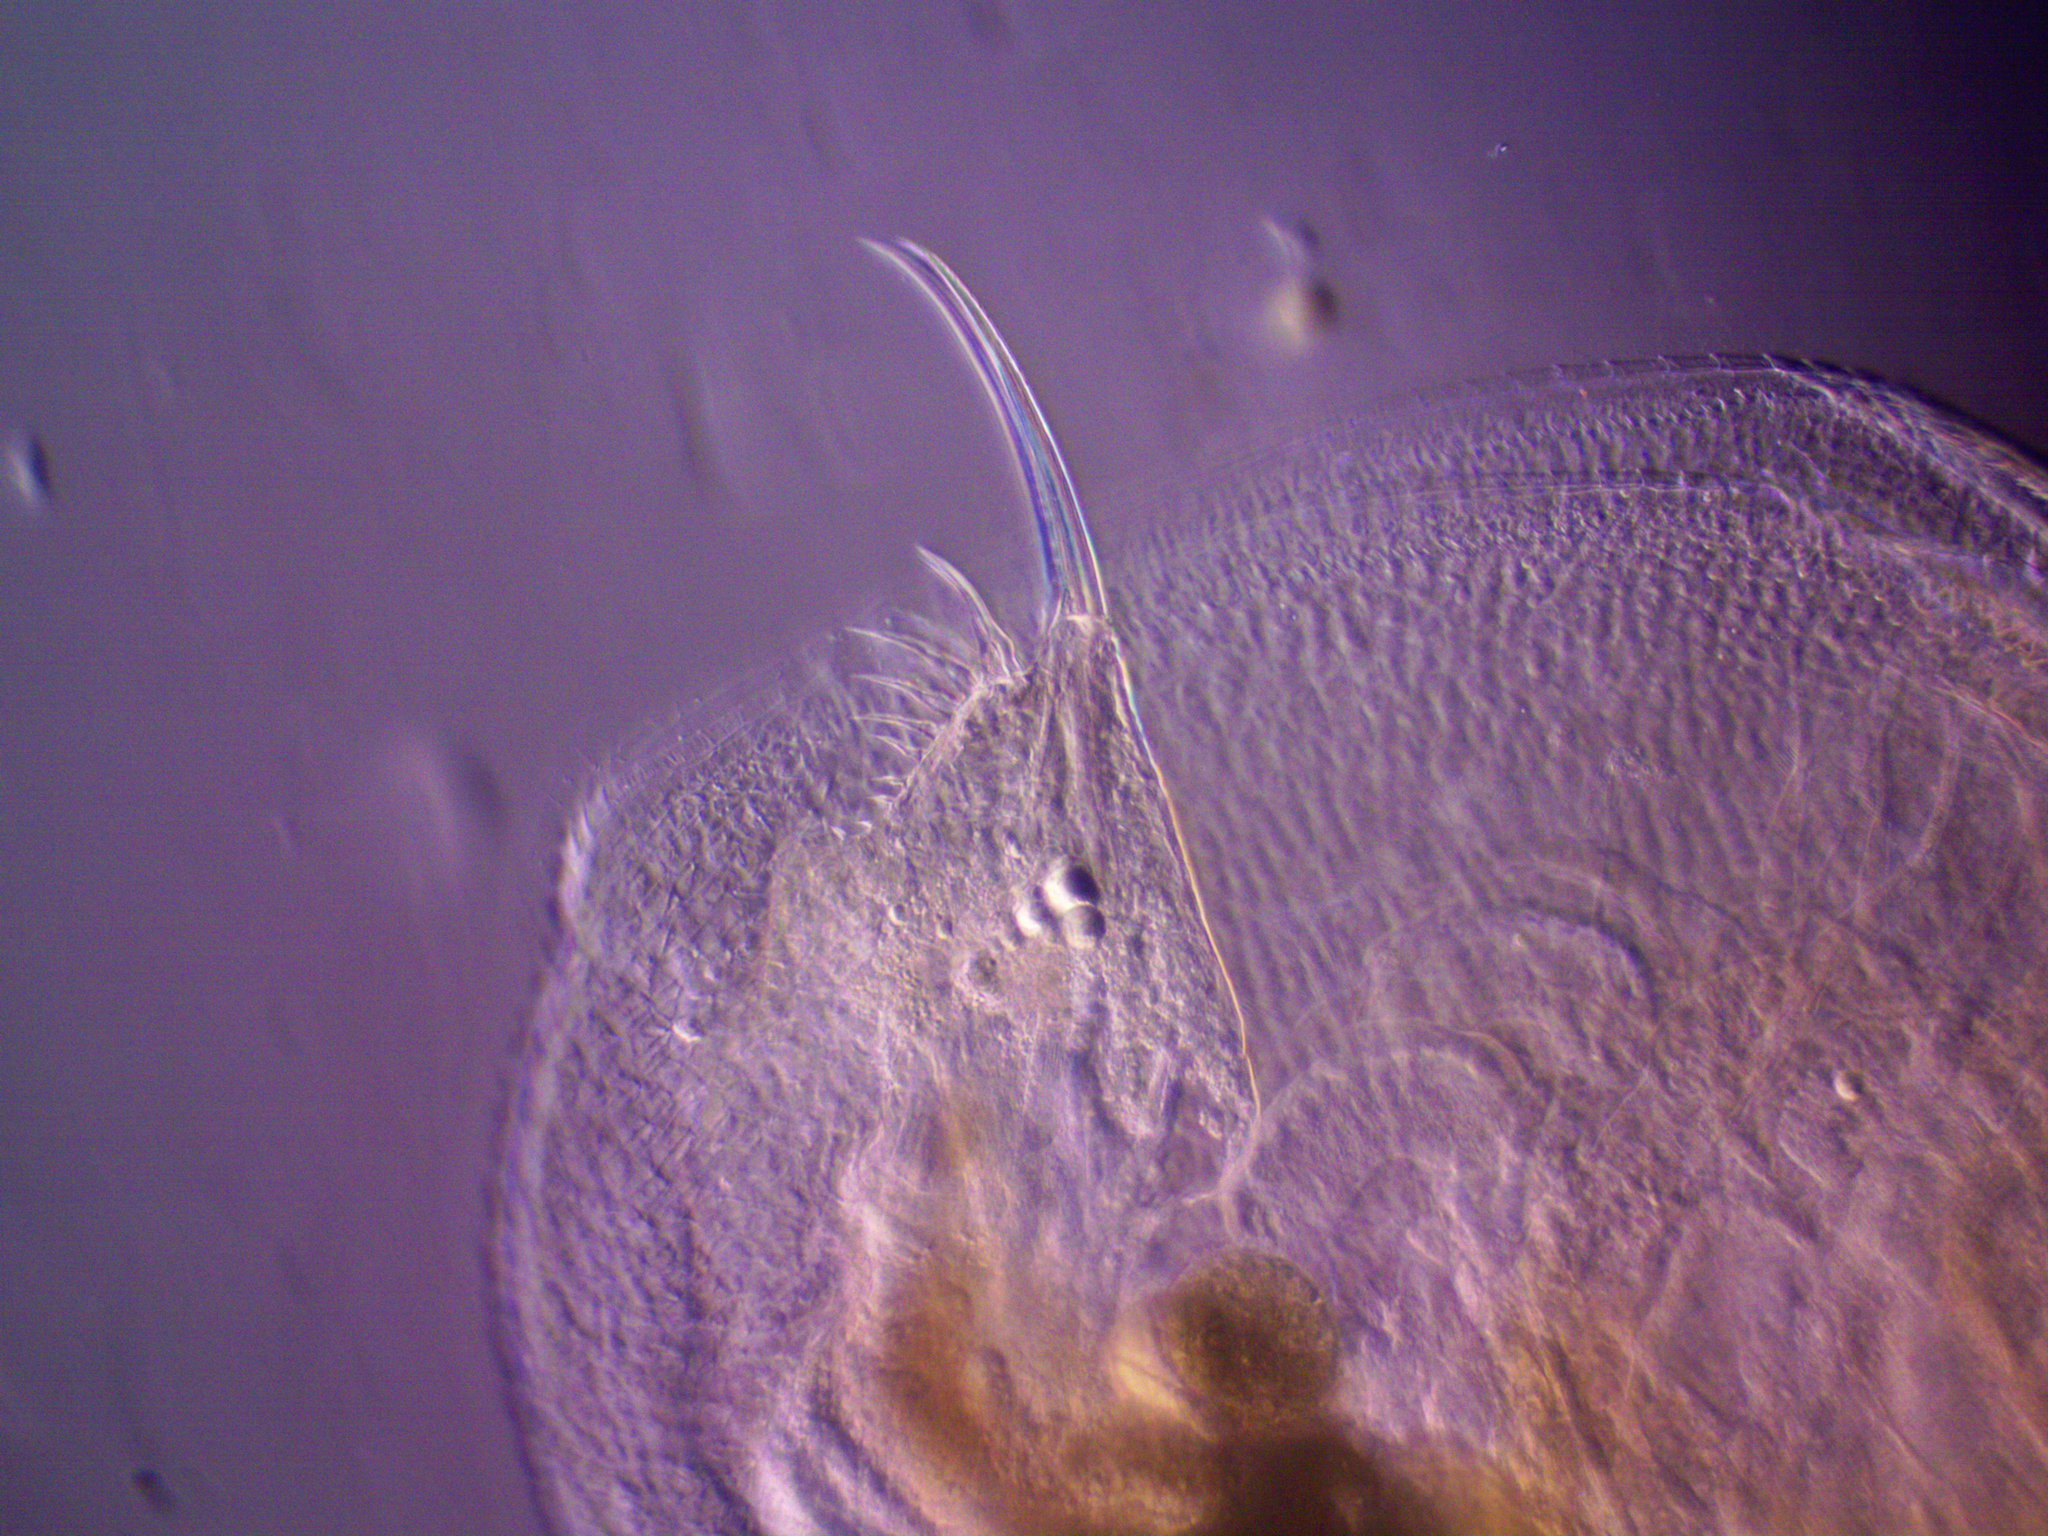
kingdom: Animalia
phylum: Arthropoda
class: Branchiopoda
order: Diplostraca
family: Daphniidae
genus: Simocephalus
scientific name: Simocephalus vetulus
